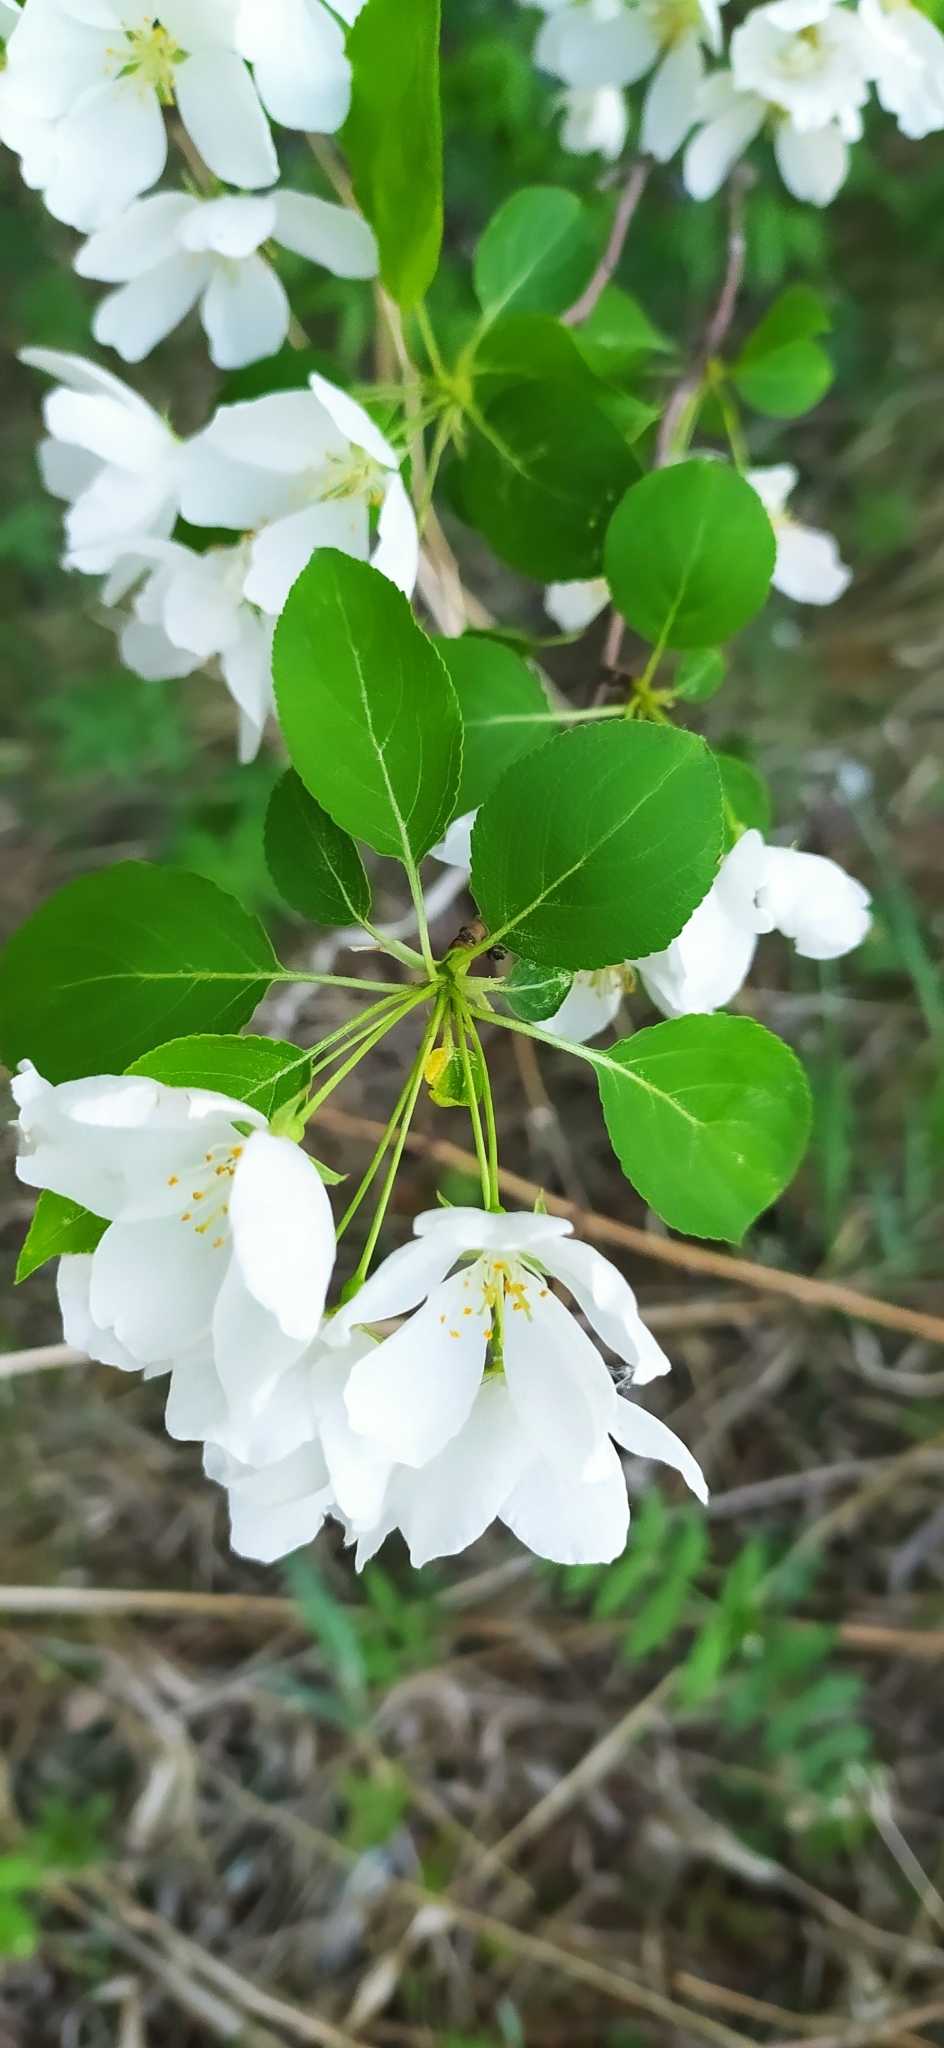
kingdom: Plantae
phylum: Tracheophyta
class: Magnoliopsida
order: Rosales
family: Rosaceae
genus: Malus
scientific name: Malus baccata
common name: Siberian crab
